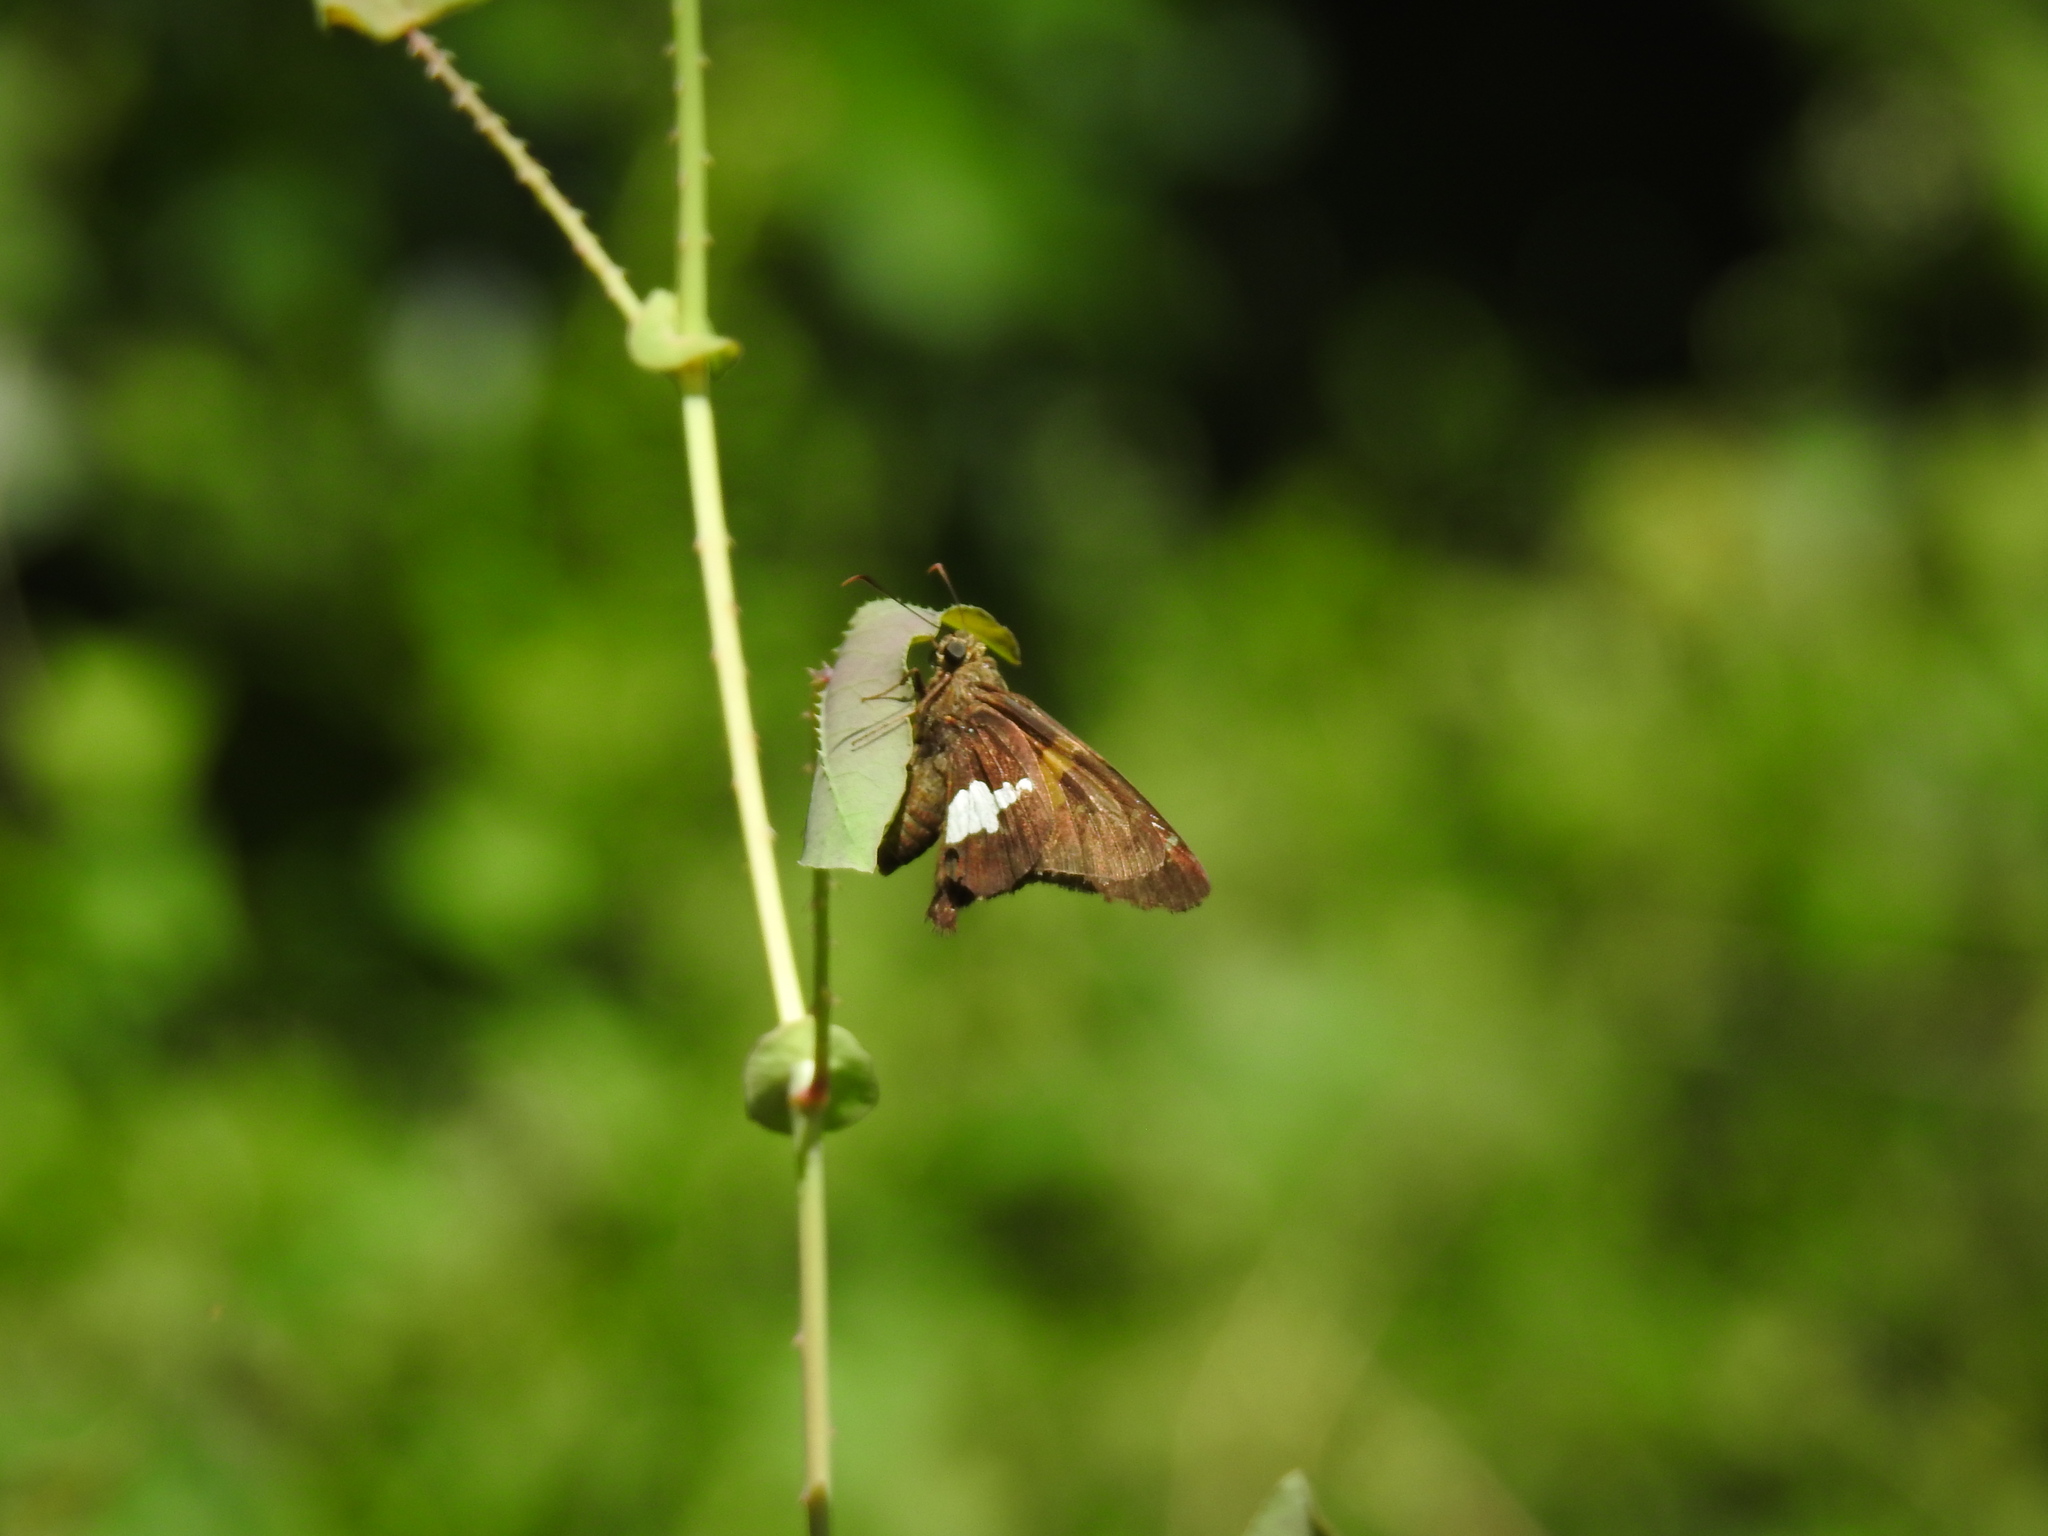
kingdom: Animalia
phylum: Arthropoda
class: Insecta
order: Lepidoptera
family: Hesperiidae
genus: Epargyreus
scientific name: Epargyreus clarus
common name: Silver-spotted skipper
